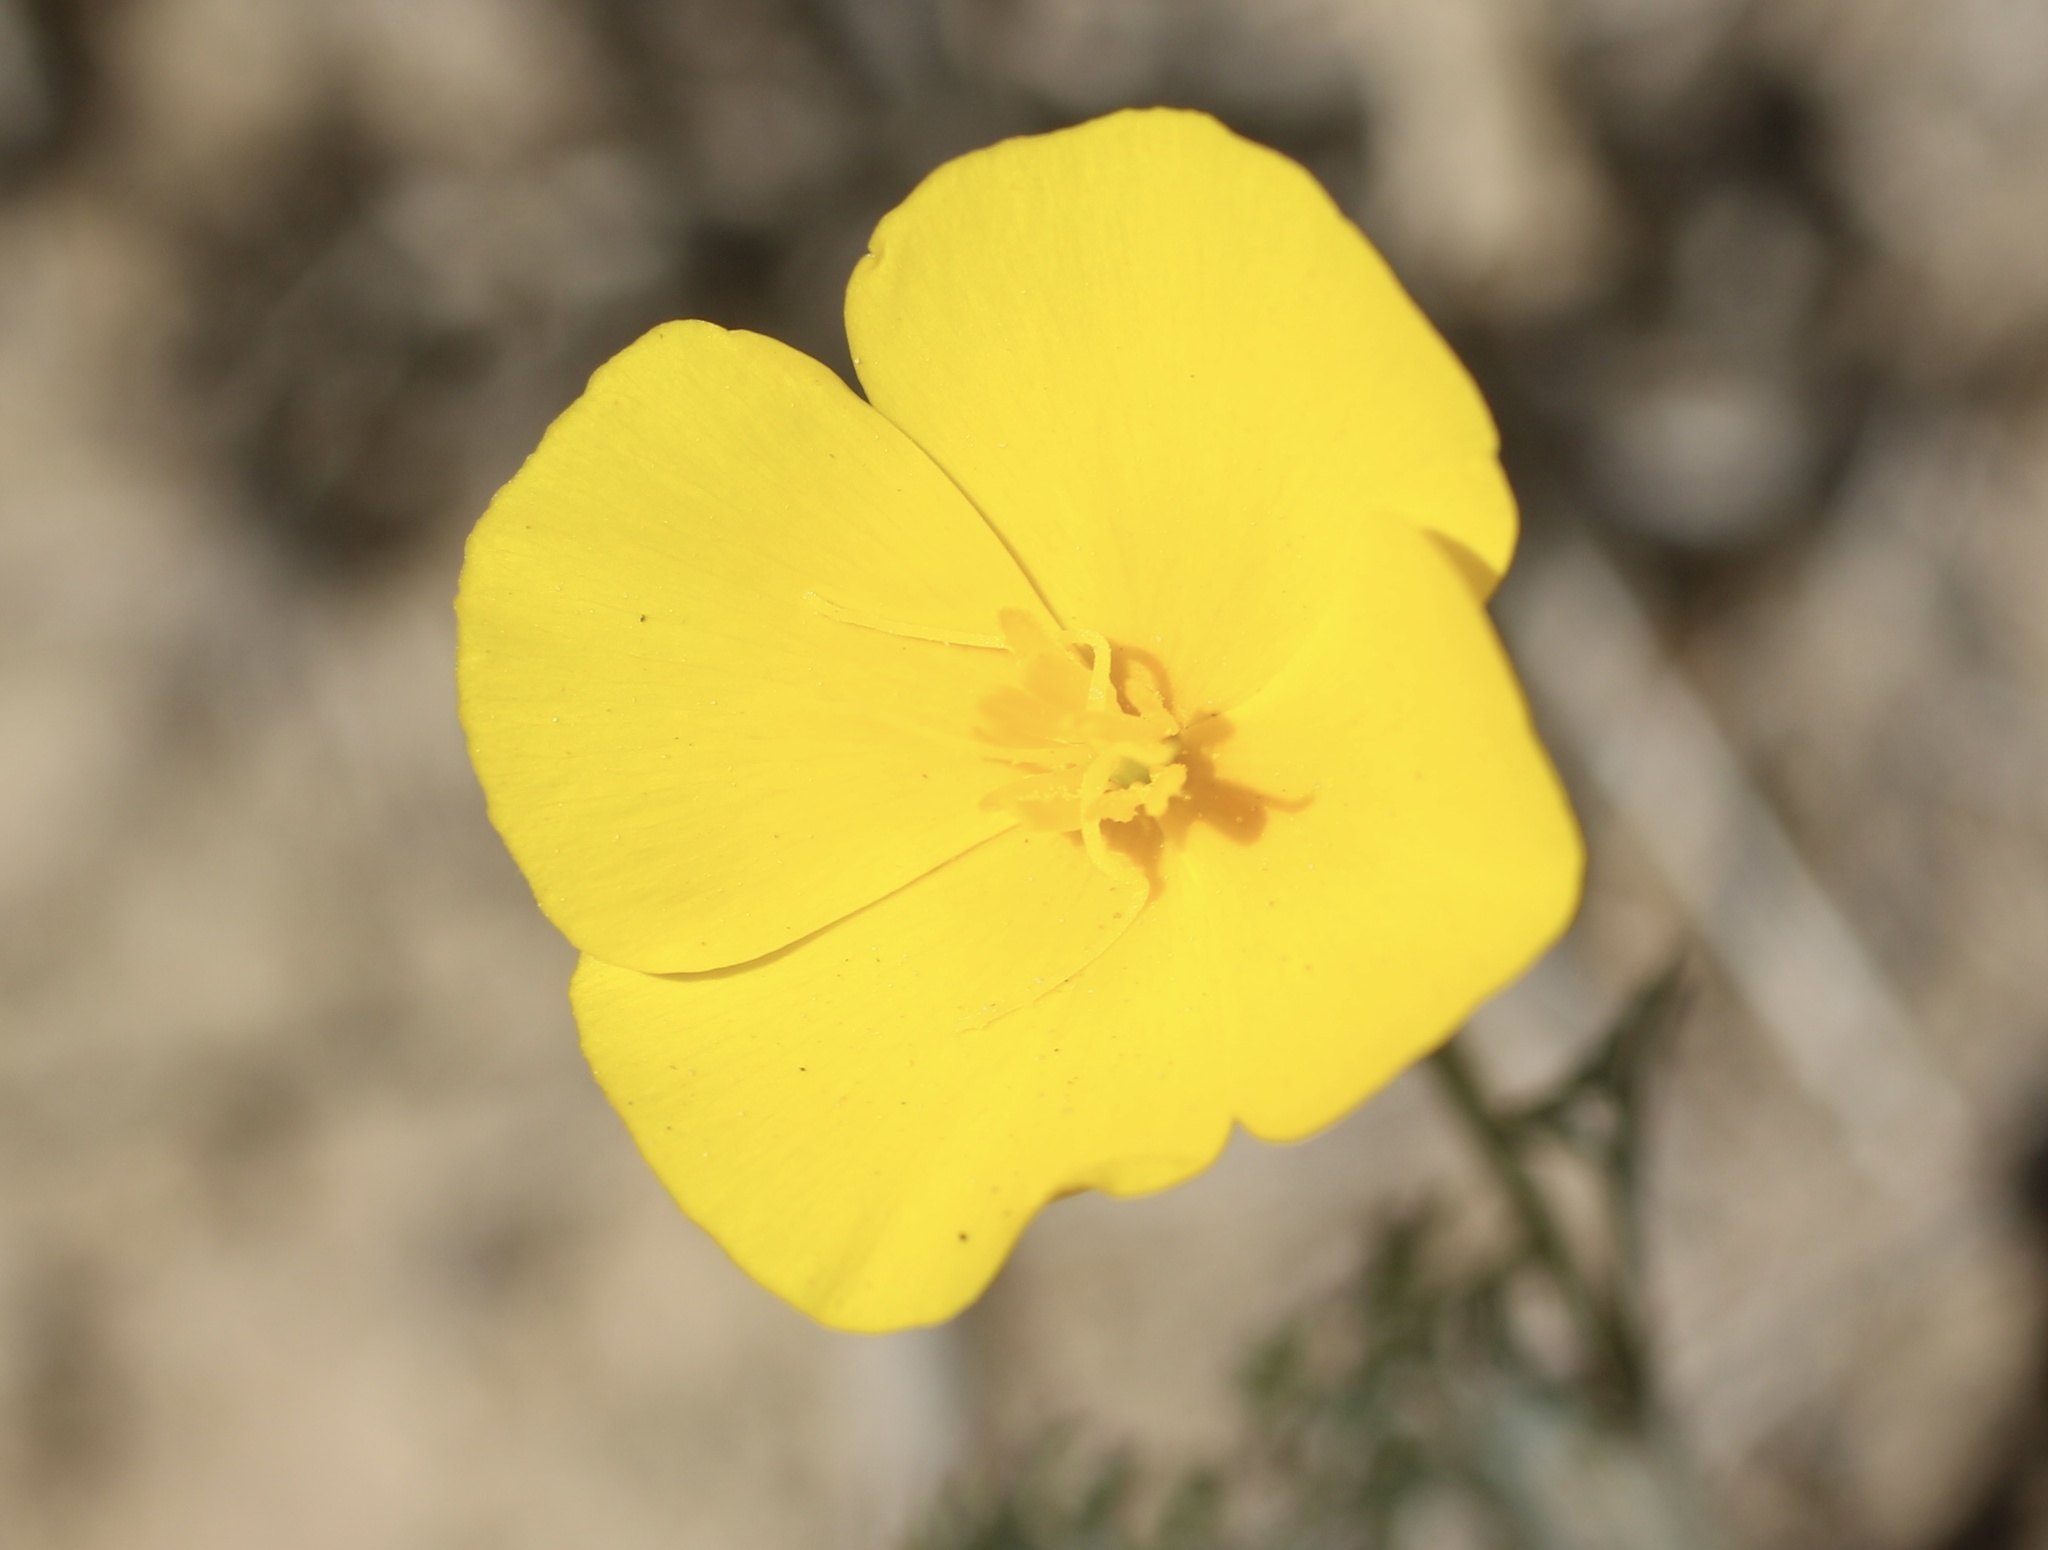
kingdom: Plantae
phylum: Tracheophyta
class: Magnoliopsida
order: Ranunculales
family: Papaveraceae
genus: Eschscholzia
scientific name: Eschscholzia californica
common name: California poppy
